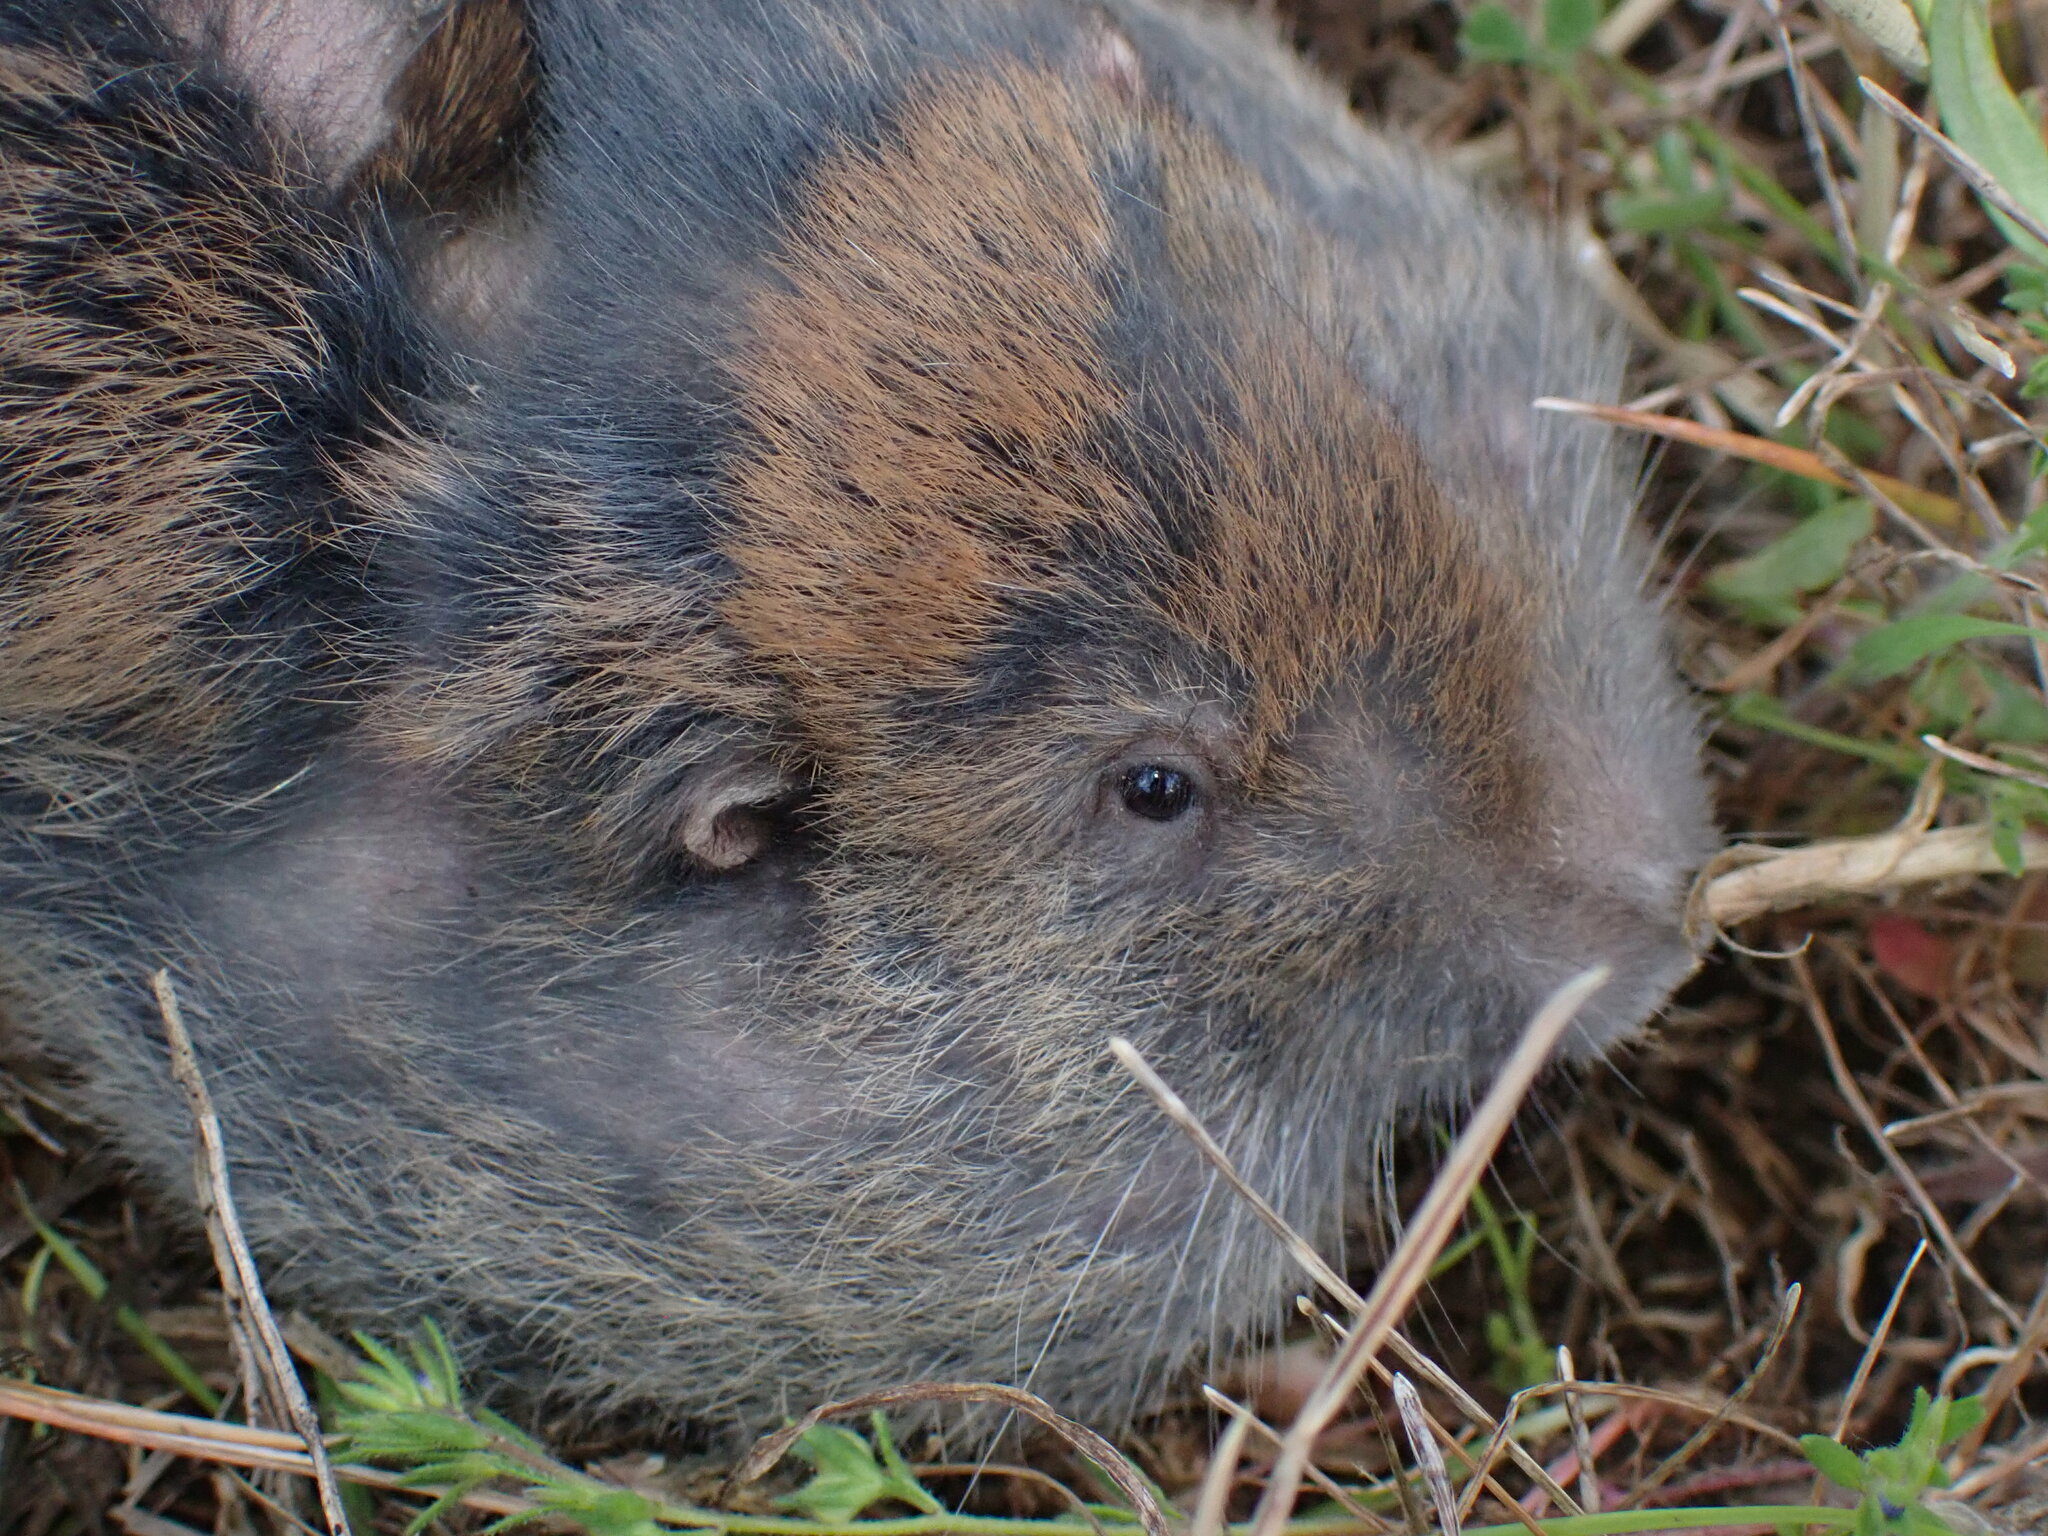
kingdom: Animalia
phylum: Chordata
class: Mammalia
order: Rodentia
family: Geomyidae
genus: Thomomys
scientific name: Thomomys talpoides
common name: Northern pocket gopher
